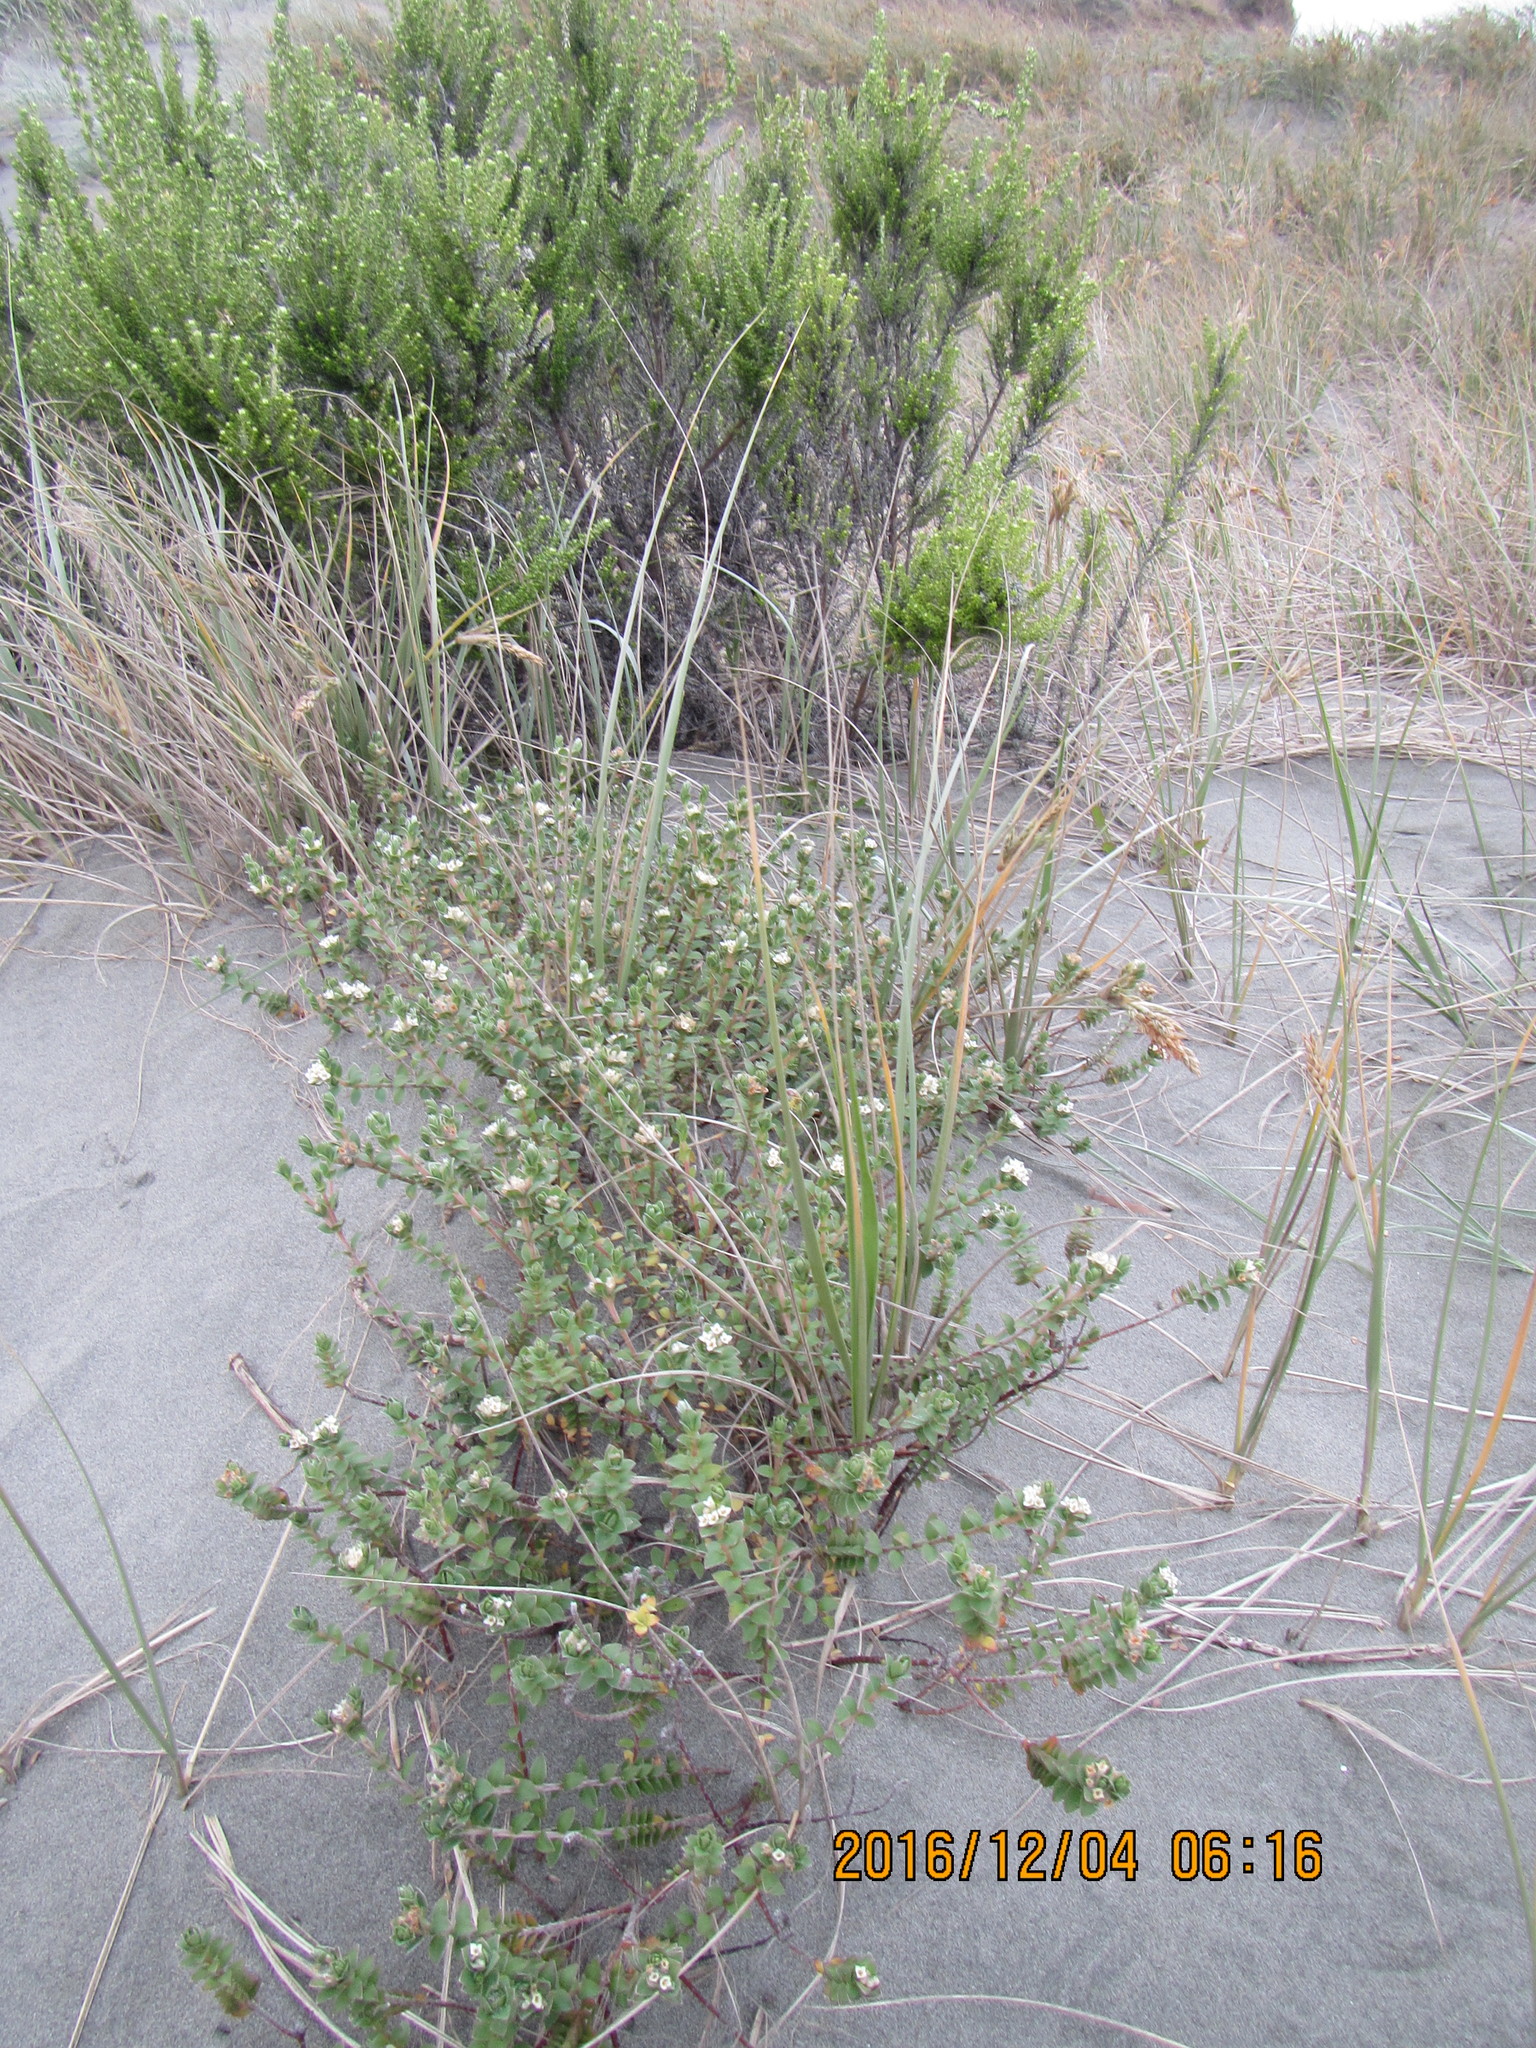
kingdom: Plantae
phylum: Tracheophyta
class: Magnoliopsida
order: Malvales
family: Thymelaeaceae
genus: Pimelea
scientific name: Pimelea villosa
